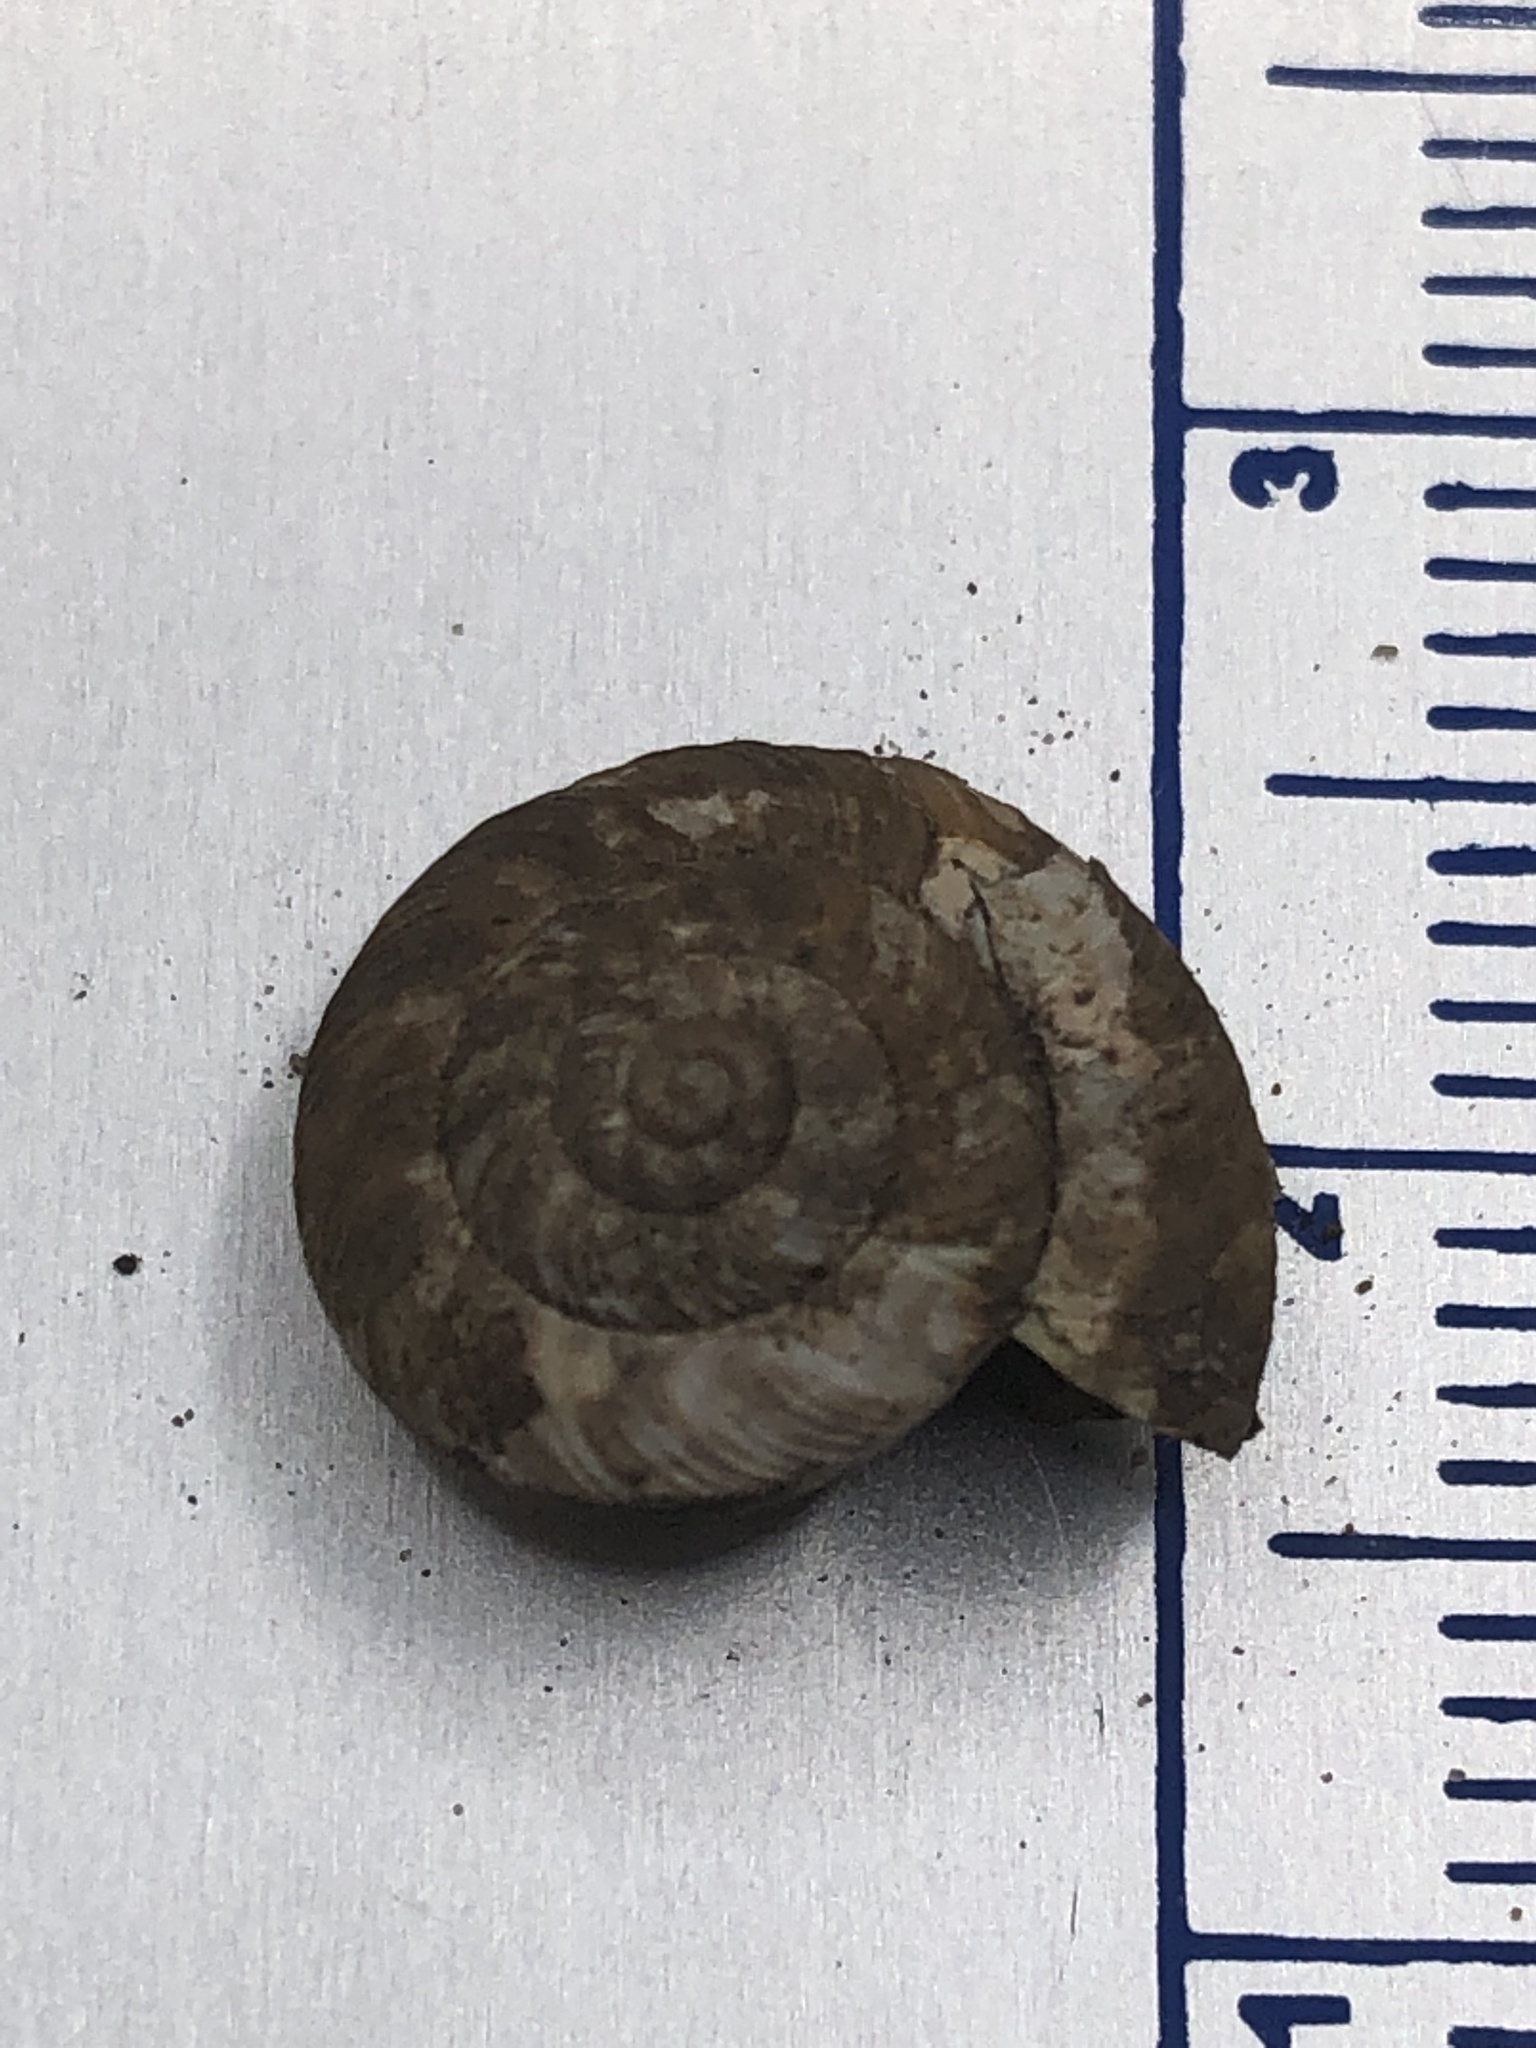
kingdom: Animalia
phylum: Mollusca
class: Gastropoda
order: Stylommatophora
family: Discidae
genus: Anguispira
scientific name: Anguispira alternata
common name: Flamed tigersnail
